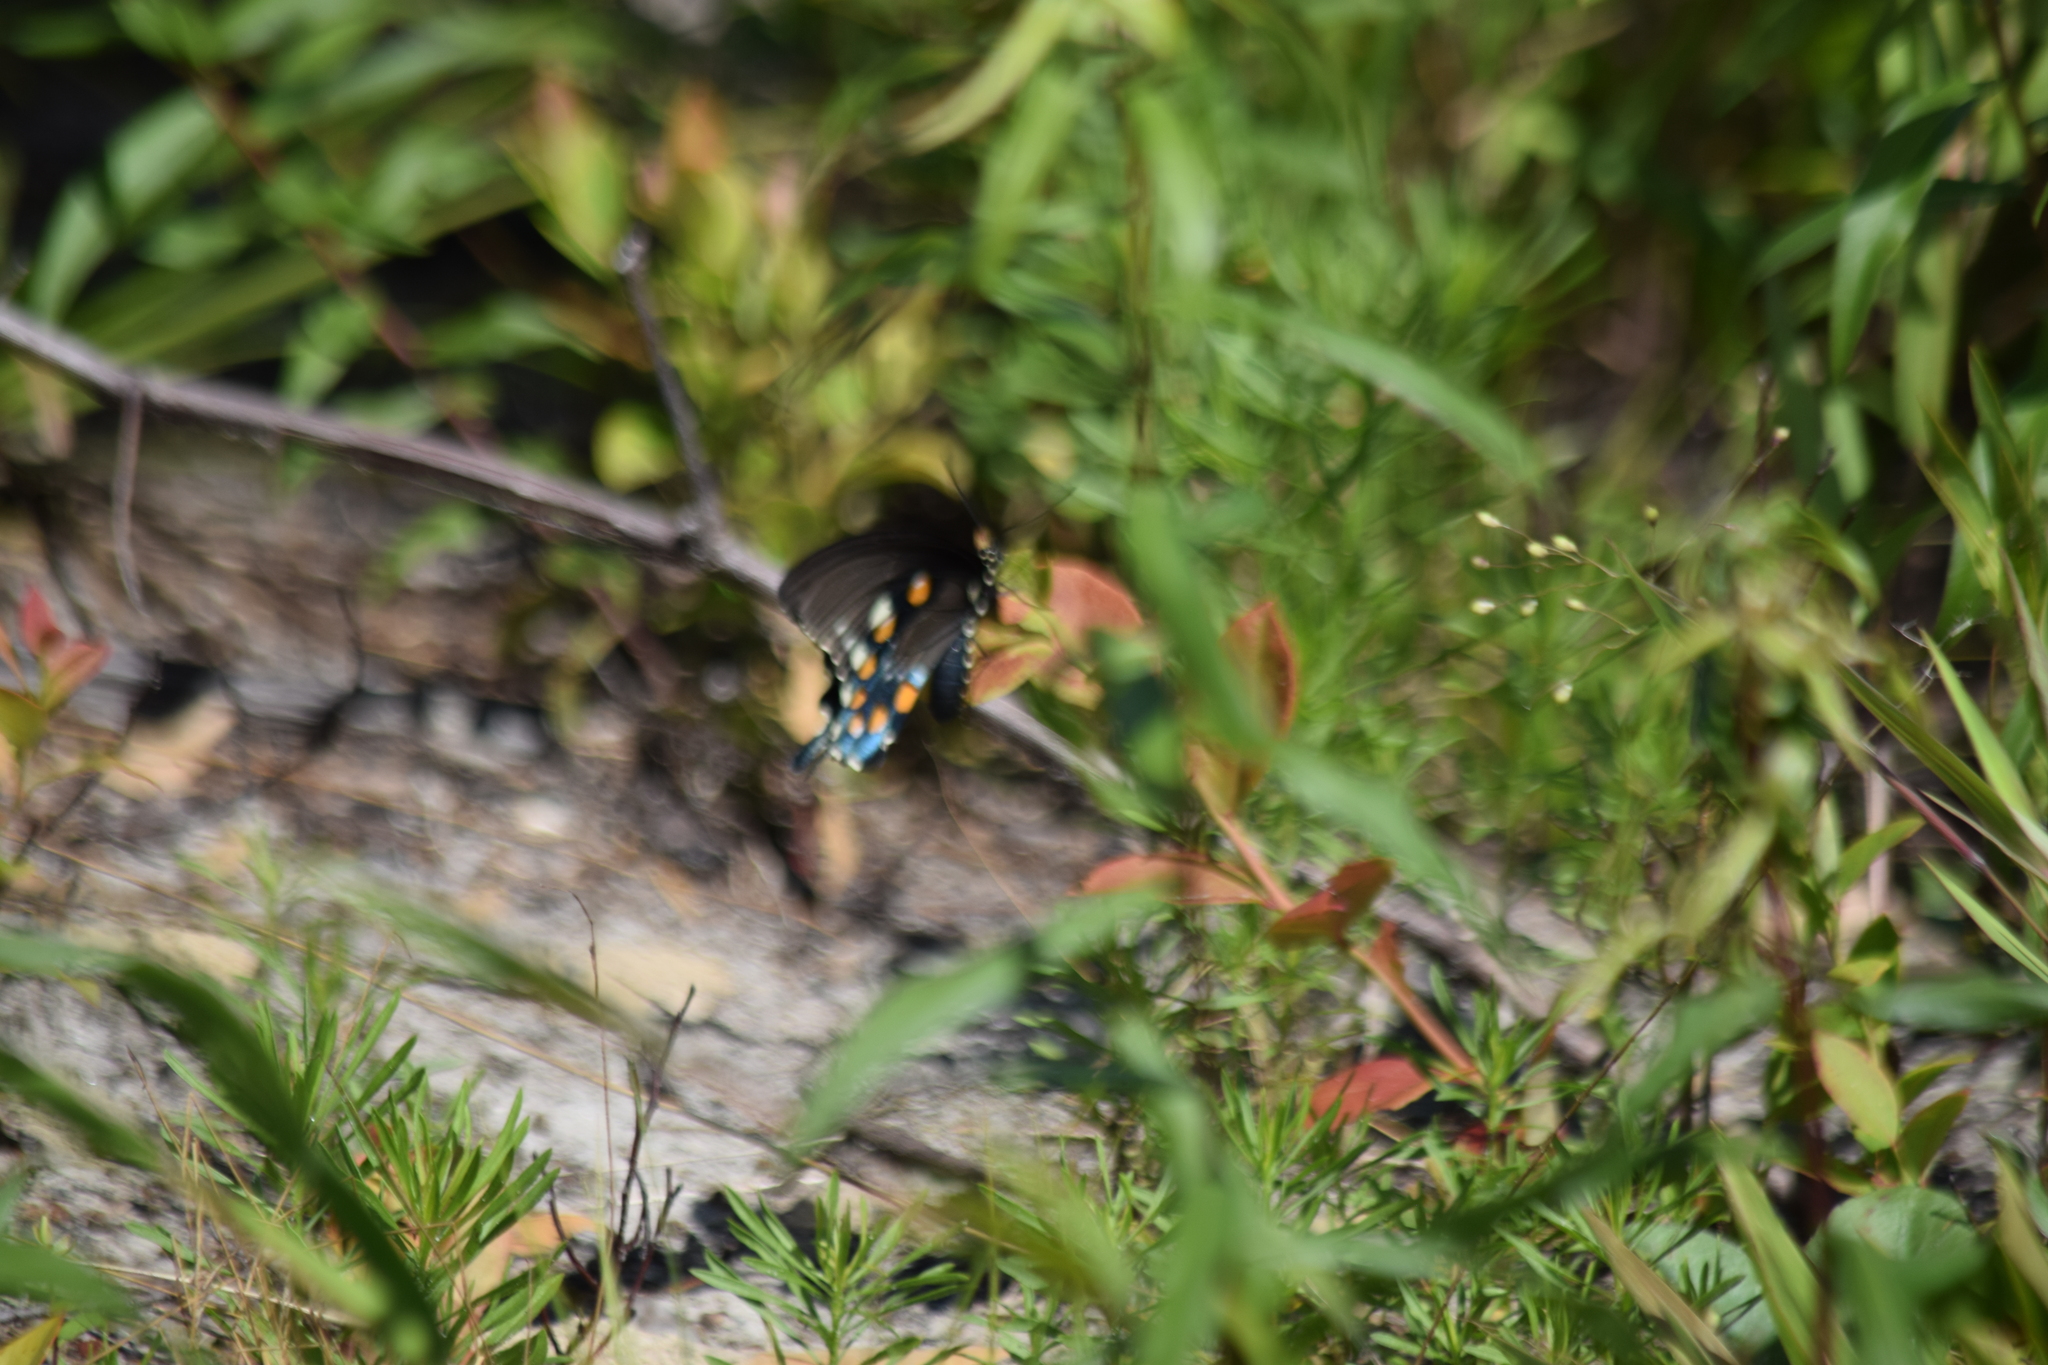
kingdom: Animalia
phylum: Arthropoda
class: Insecta
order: Lepidoptera
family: Papilionidae
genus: Battus
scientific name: Battus philenor
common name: Pipevine swallowtail
